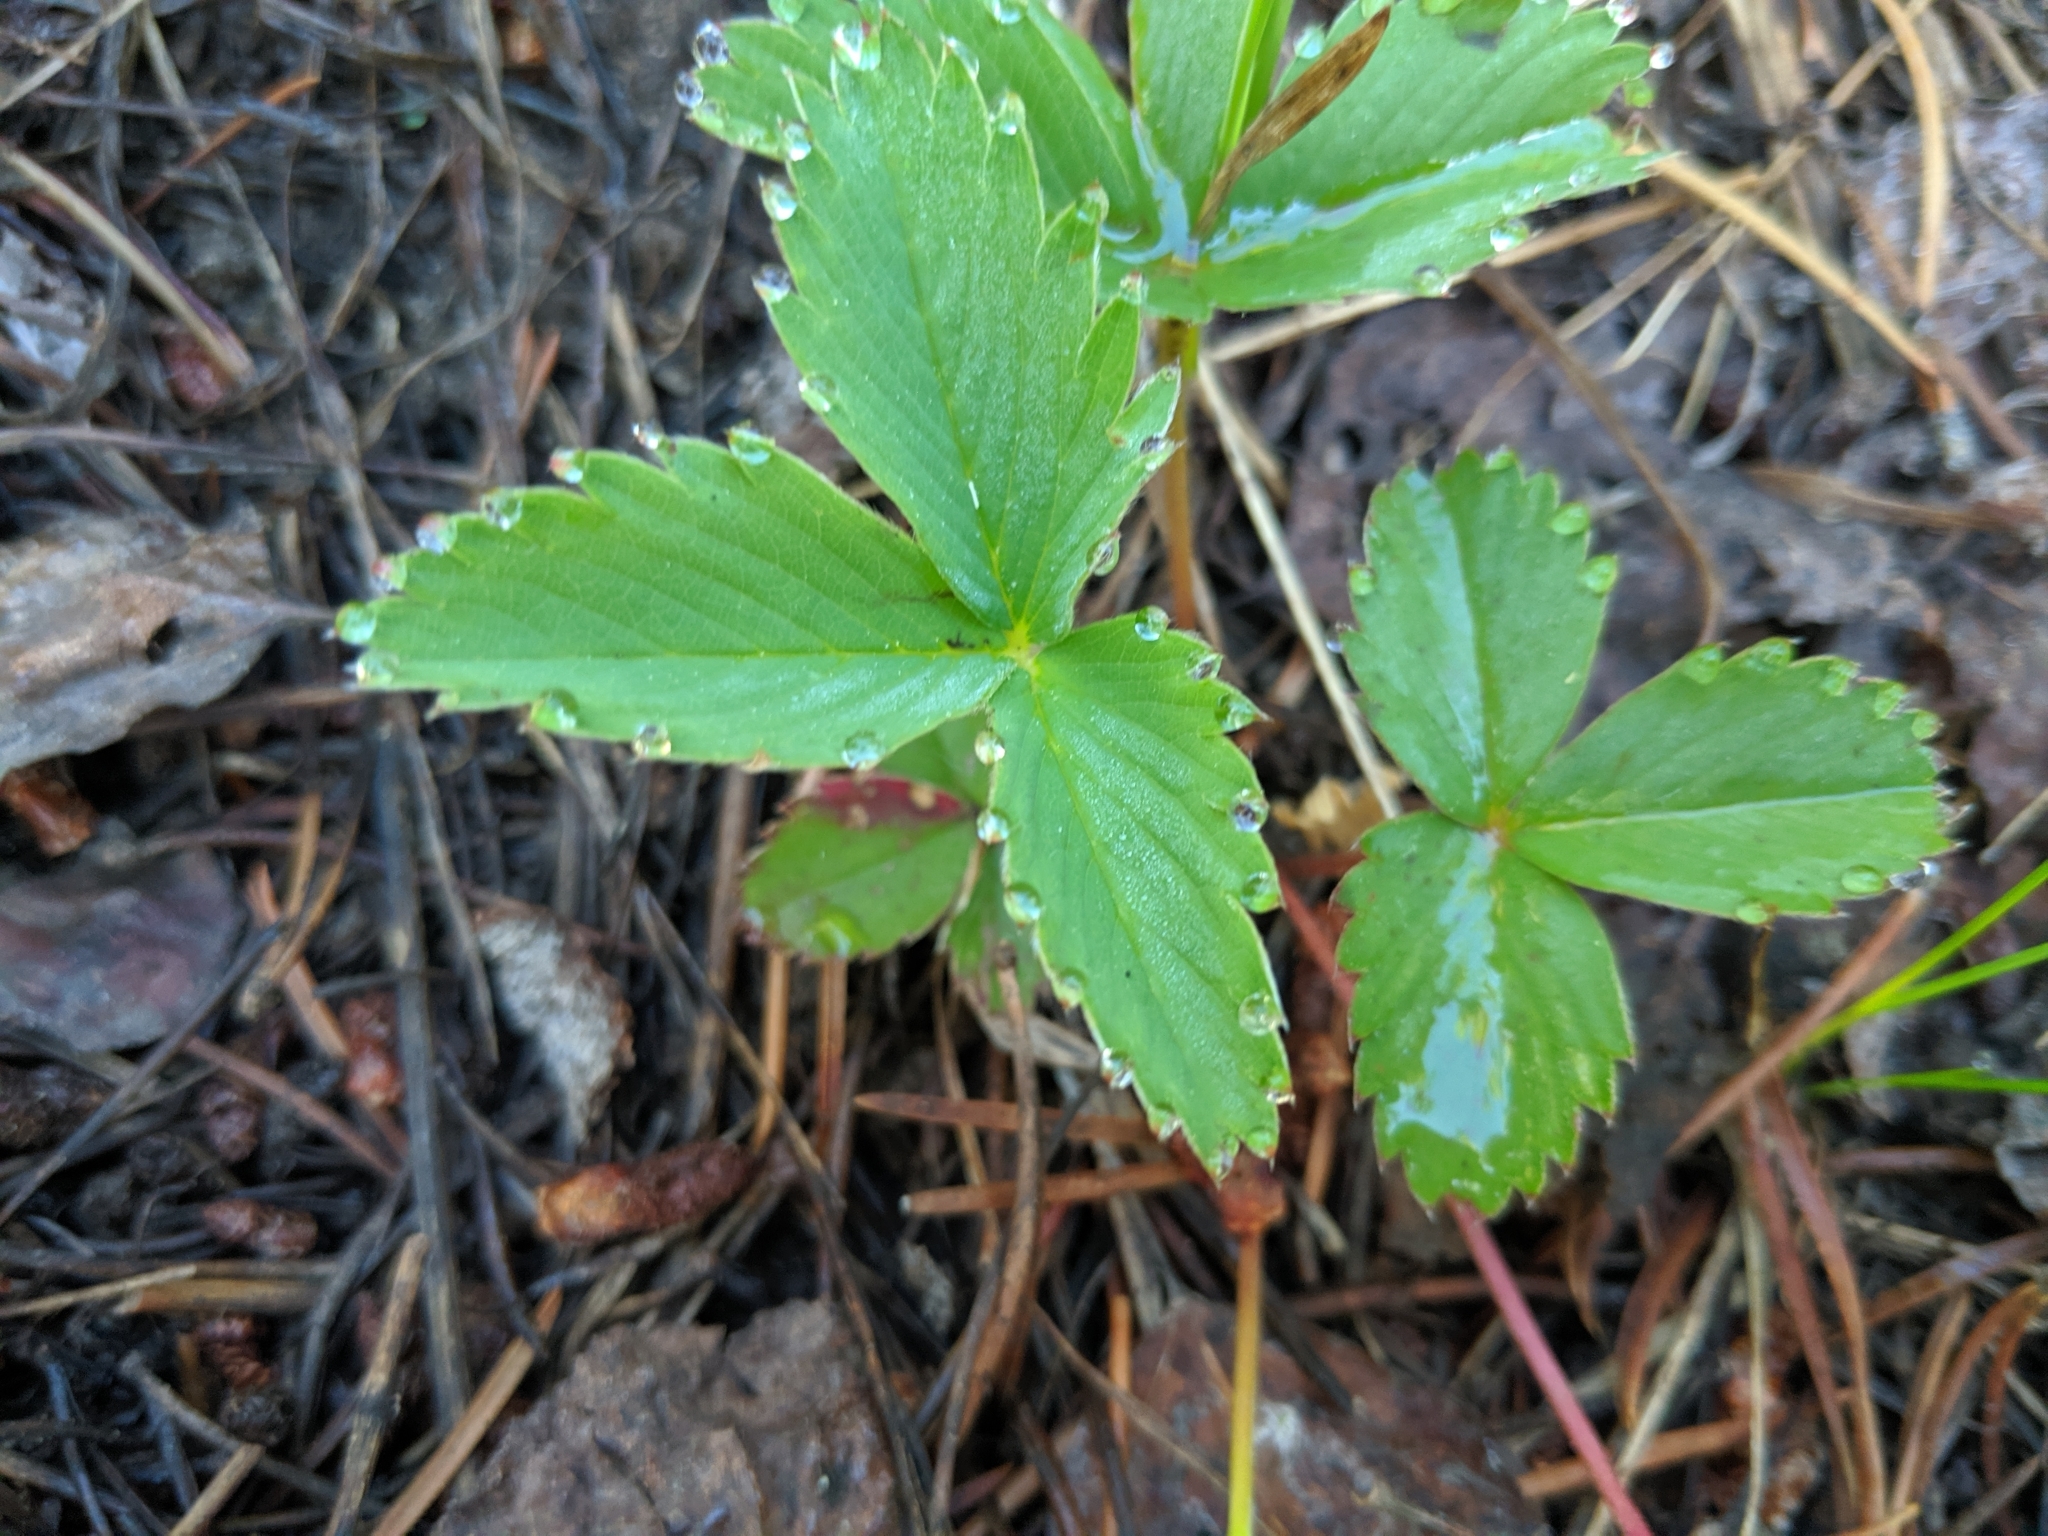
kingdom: Plantae
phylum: Tracheophyta
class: Magnoliopsida
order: Rosales
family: Rosaceae
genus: Fragaria
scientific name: Fragaria virginiana
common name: Thickleaved wild strawberry
